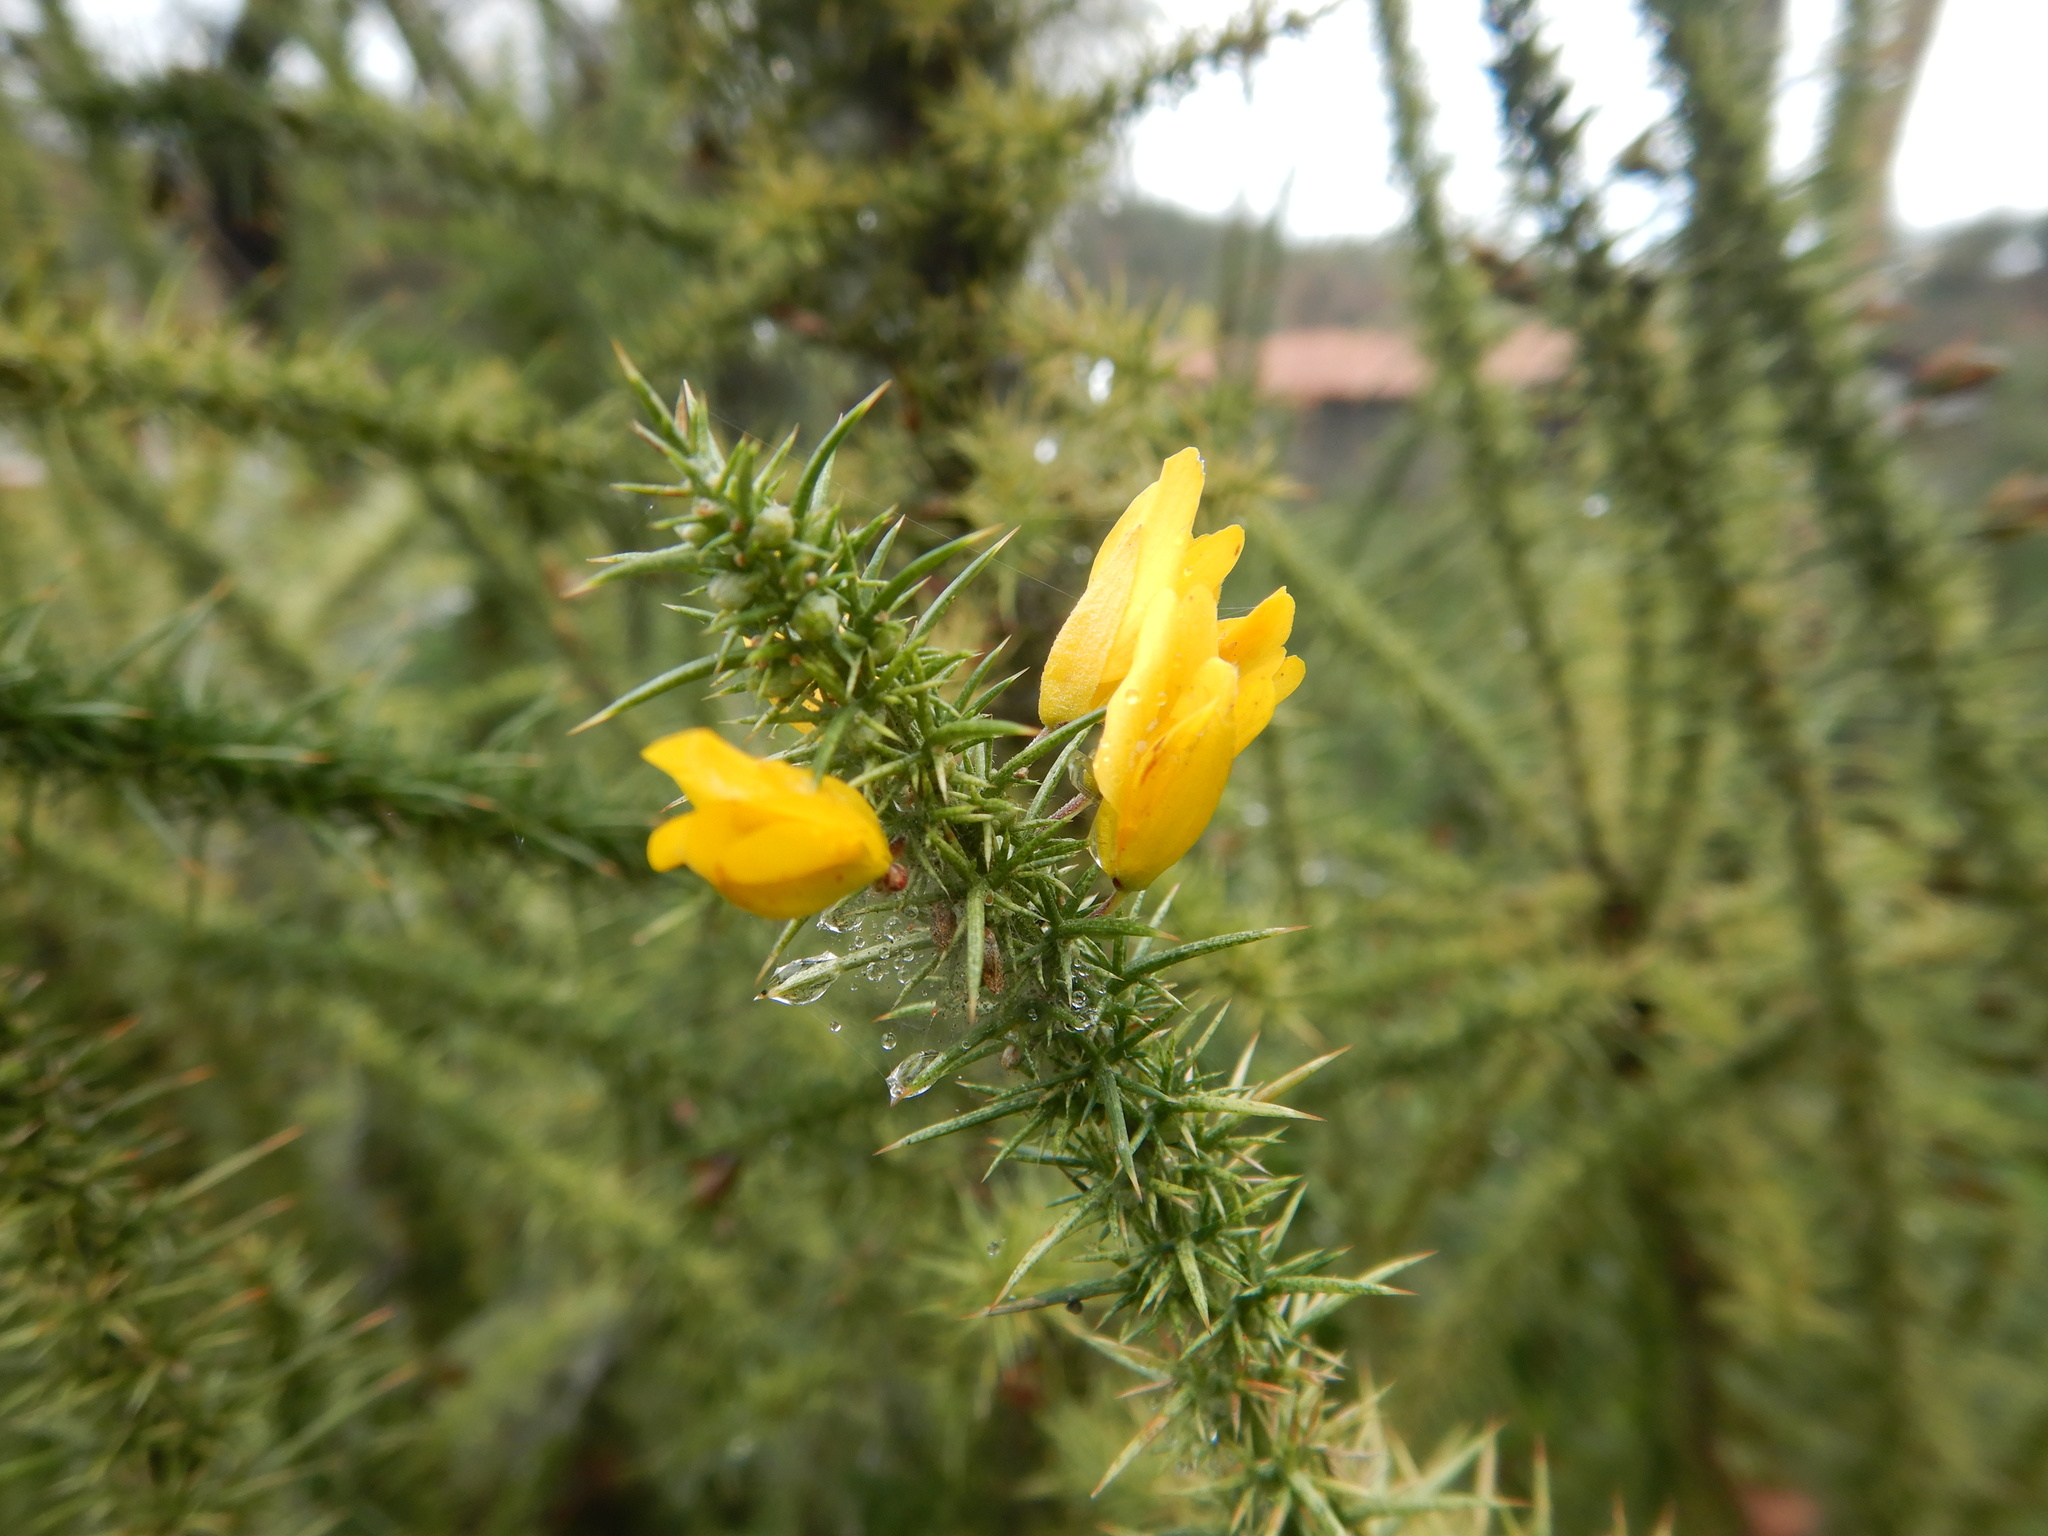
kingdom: Plantae
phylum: Tracheophyta
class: Magnoliopsida
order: Fabales
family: Fabaceae
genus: Ulex
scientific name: Ulex minor
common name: Dwarf gorse
